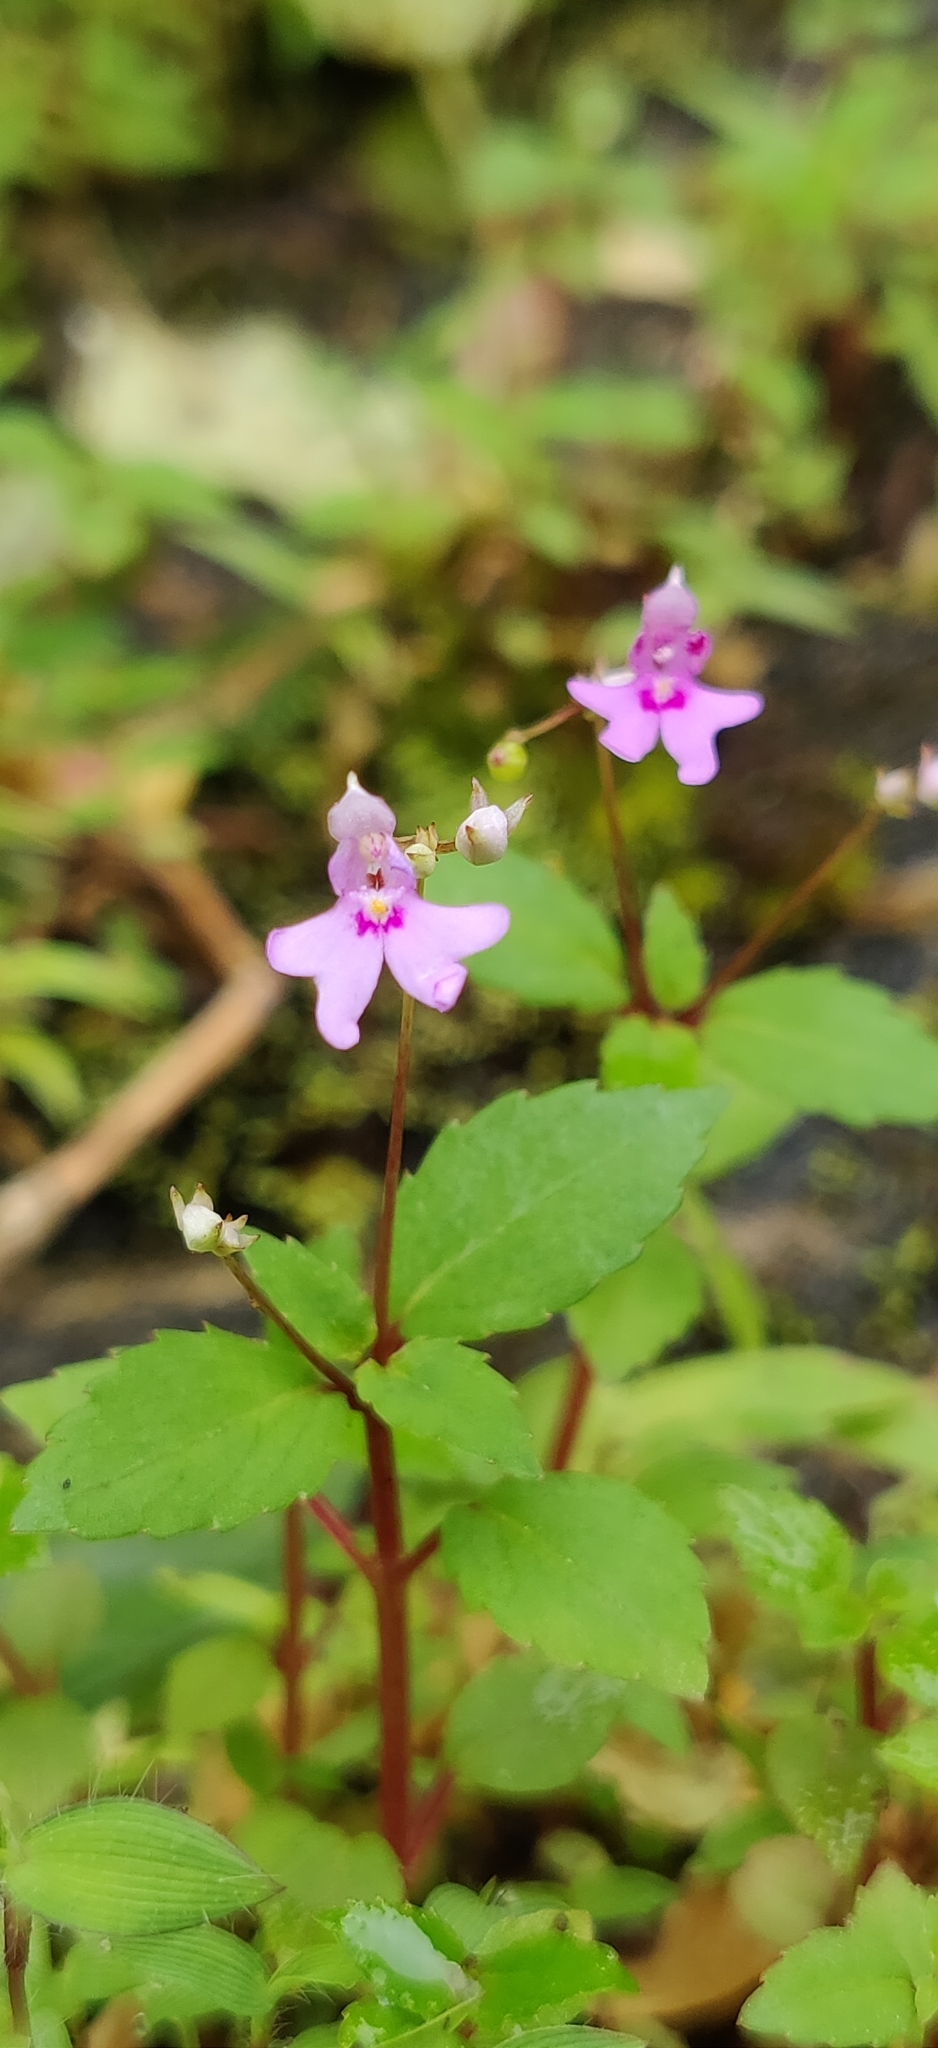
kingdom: Plantae
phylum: Tracheophyta
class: Magnoliopsida
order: Ericales
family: Balsaminaceae
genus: Impatiens
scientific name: Impatiens goughii
